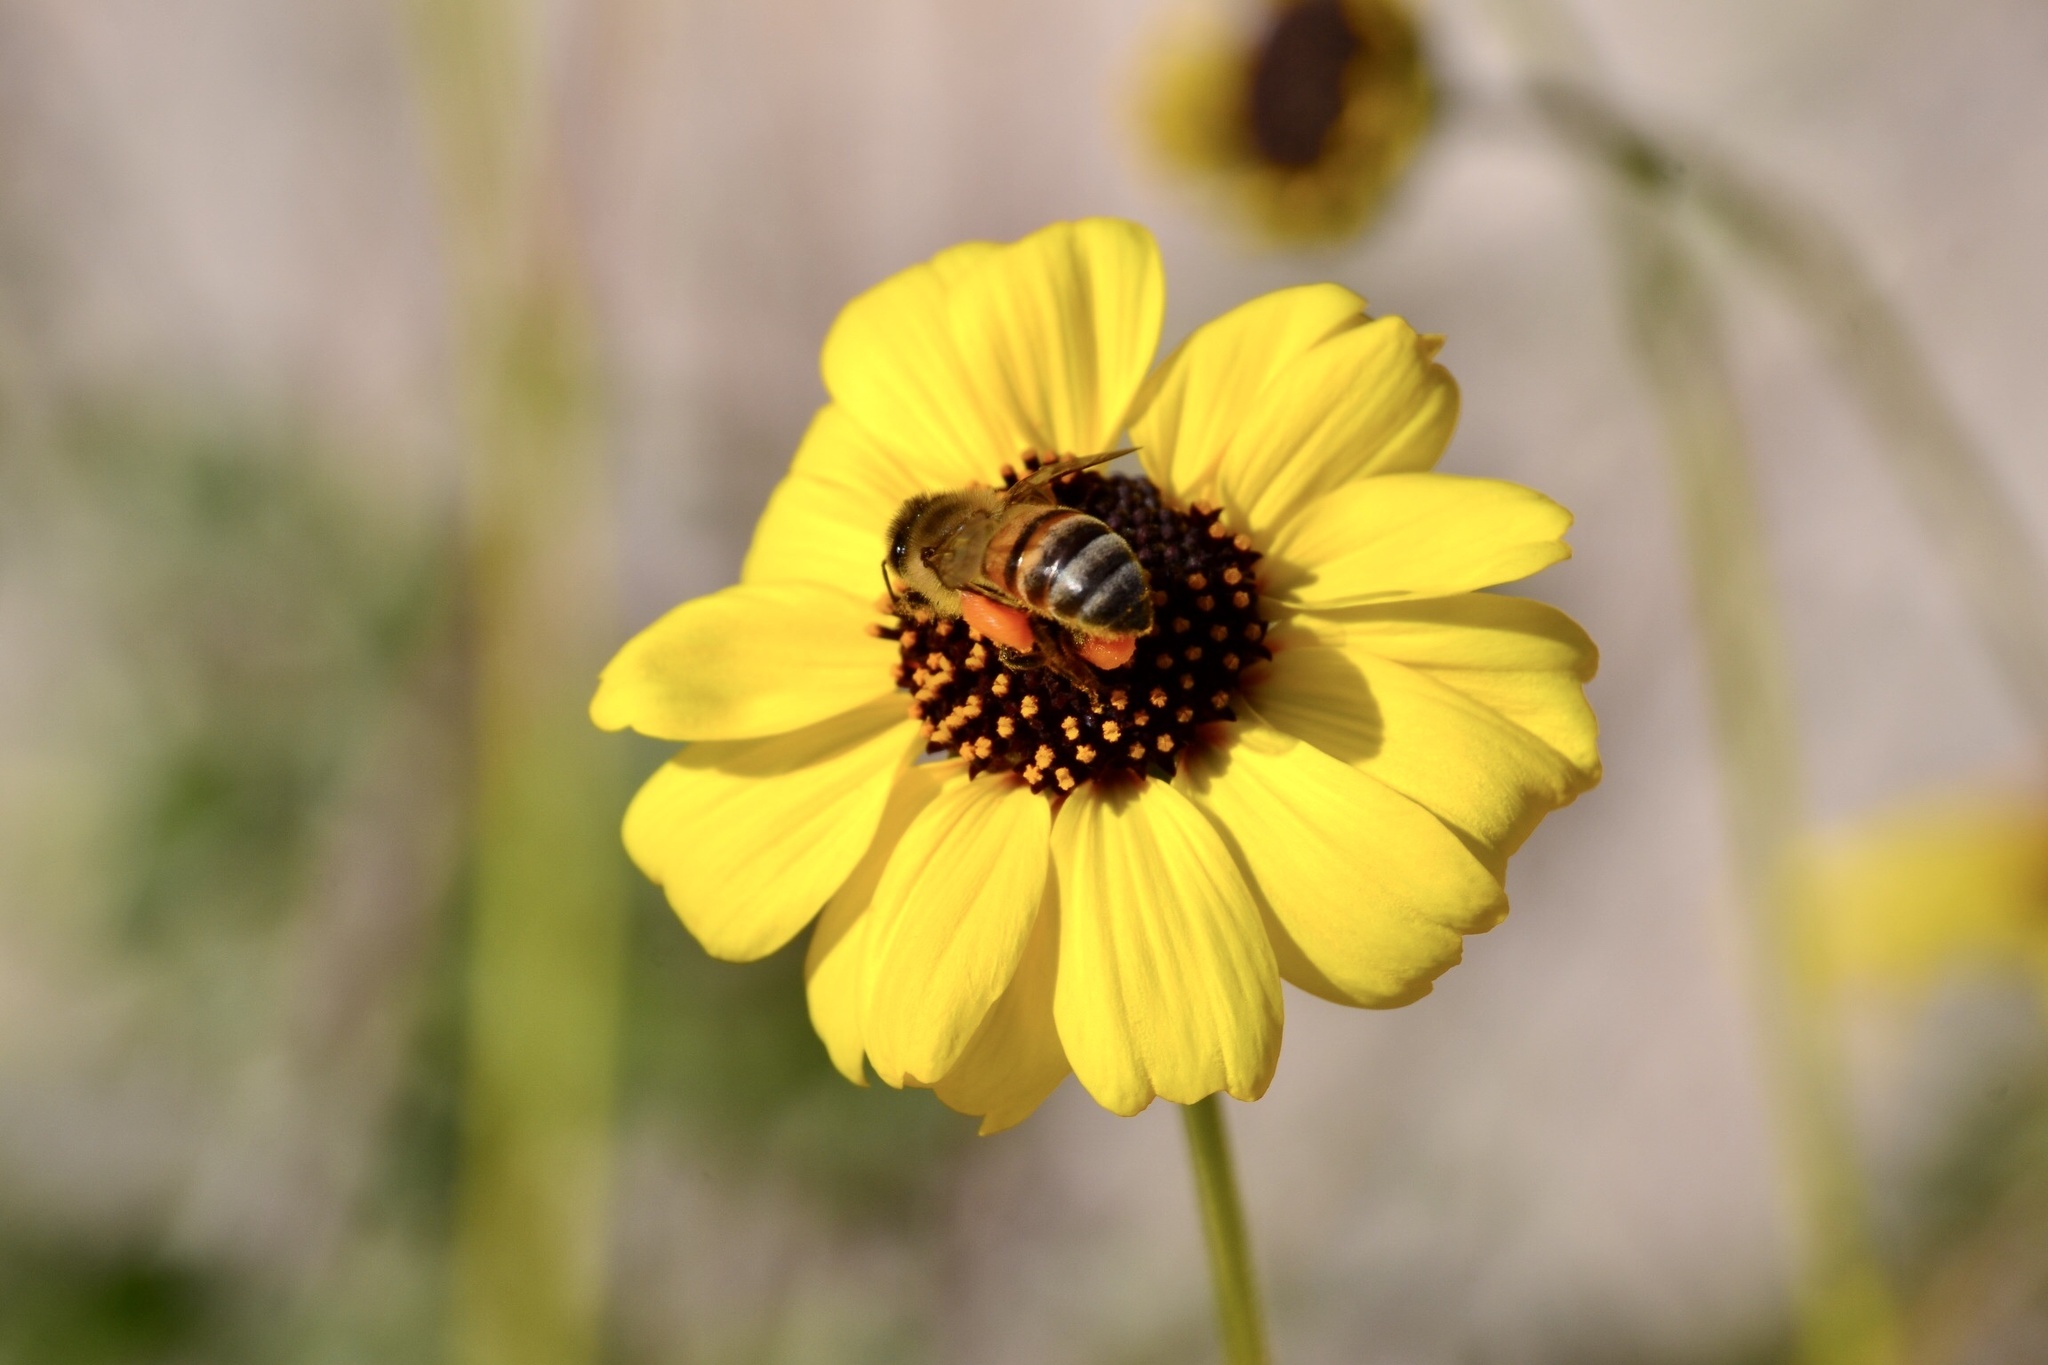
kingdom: Animalia
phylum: Arthropoda
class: Insecta
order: Hymenoptera
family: Apidae
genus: Apis
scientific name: Apis mellifera
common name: Honey bee
